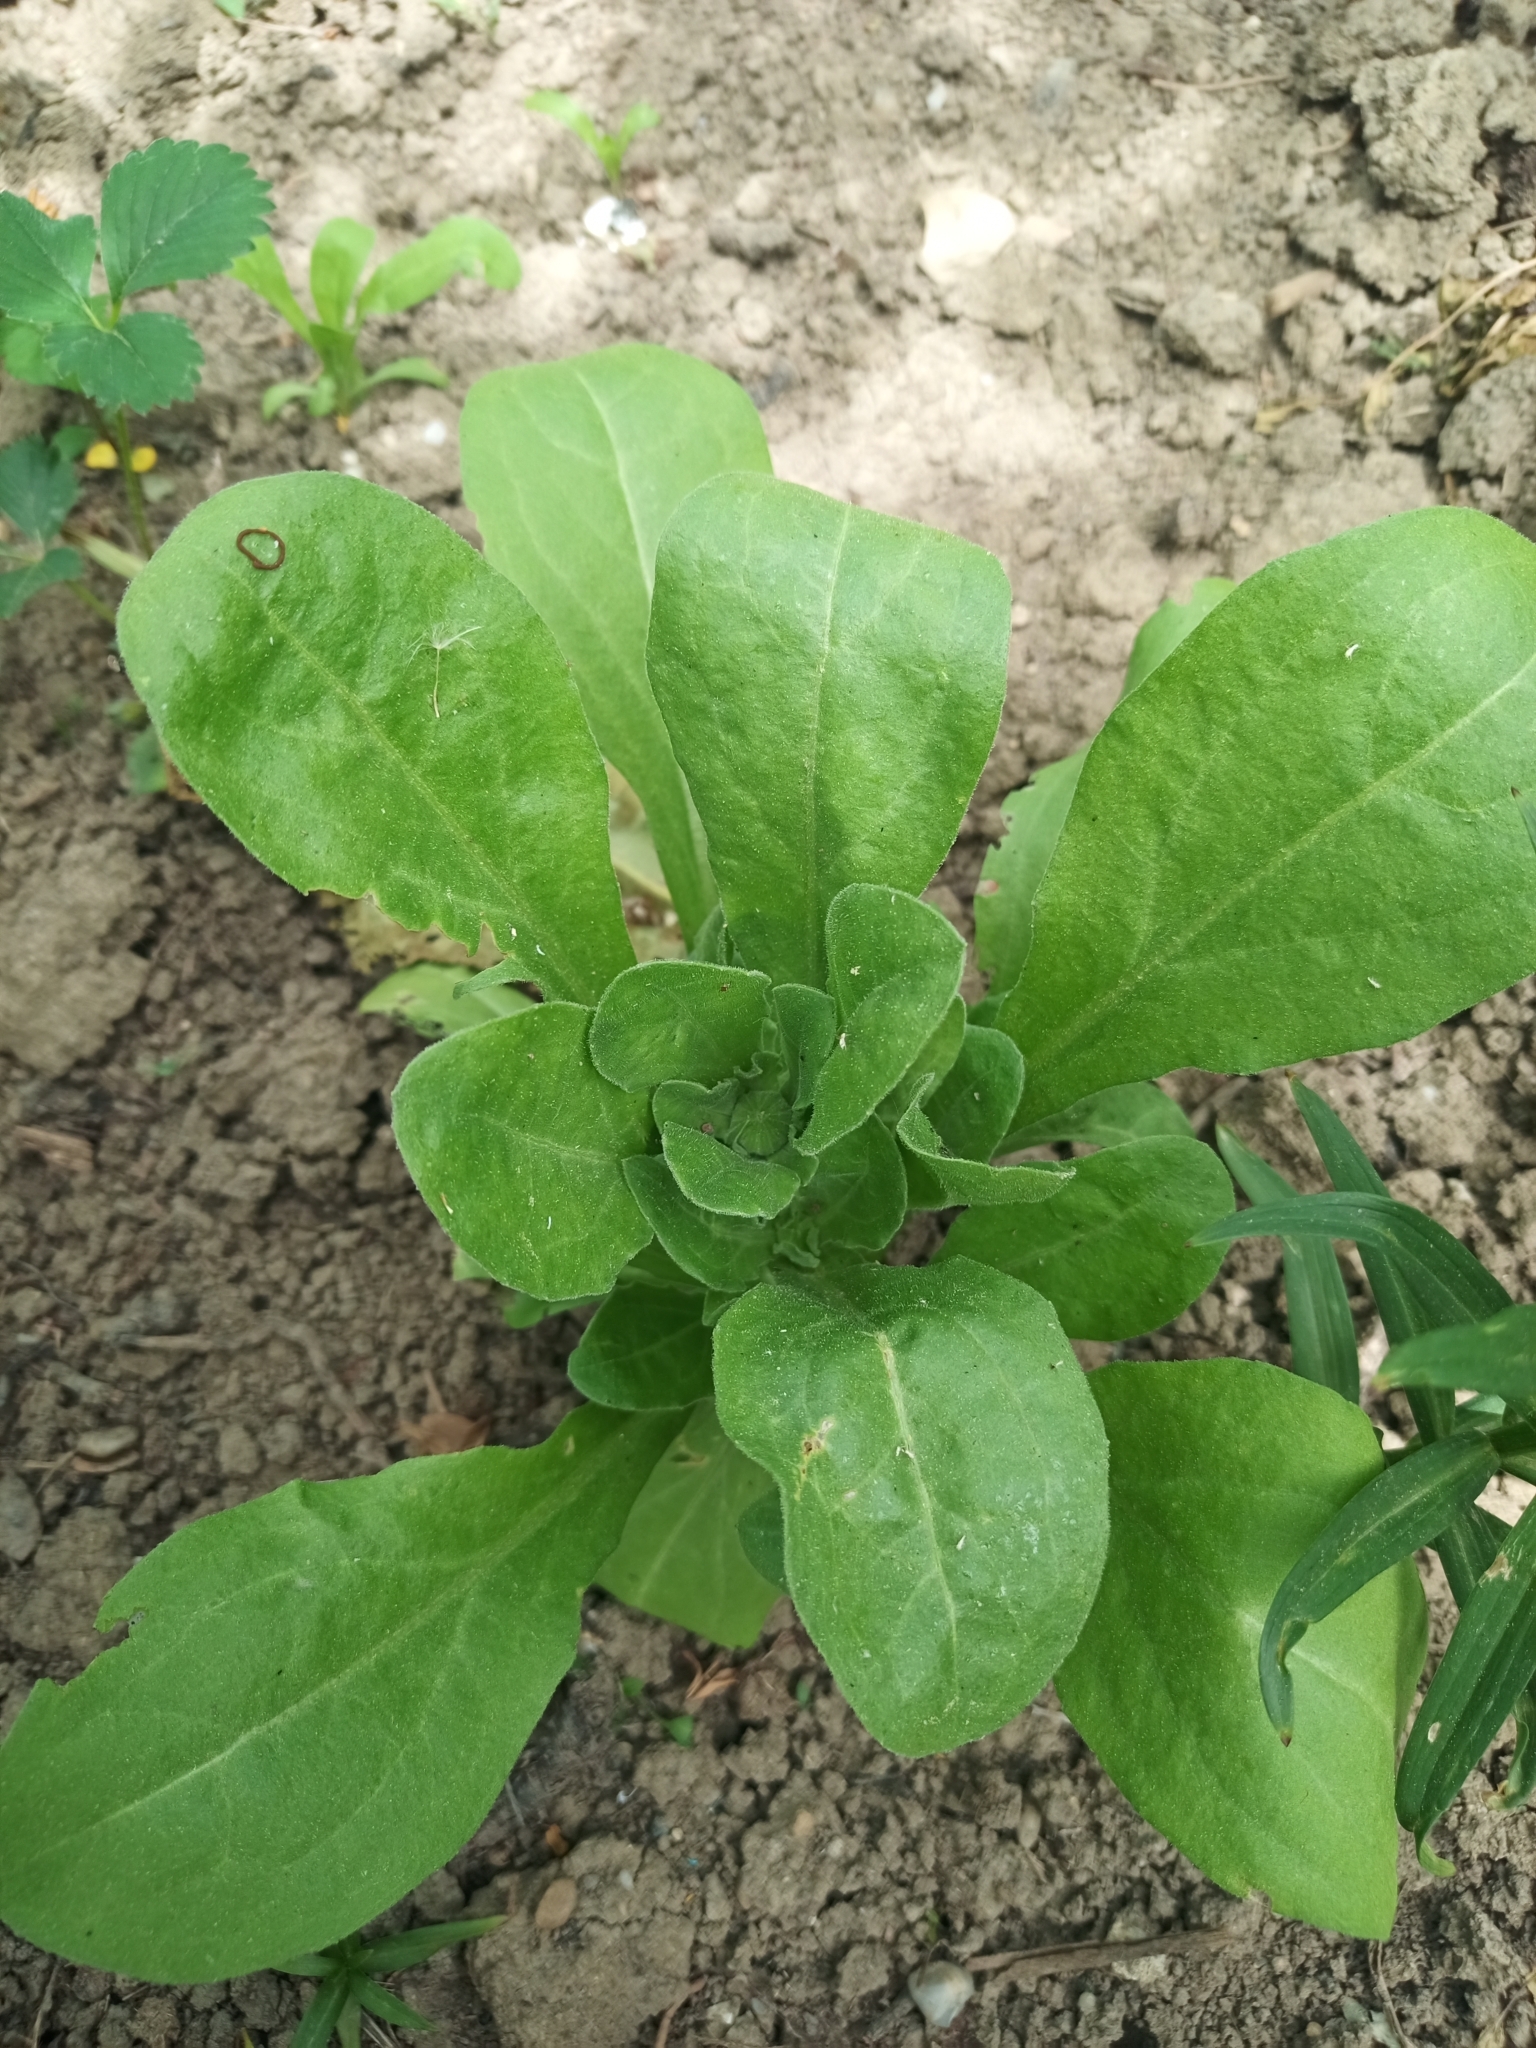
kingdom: Plantae
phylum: Tracheophyta
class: Magnoliopsida
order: Asterales
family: Asteraceae
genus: Calendula
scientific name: Calendula officinalis
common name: Pot marigold
